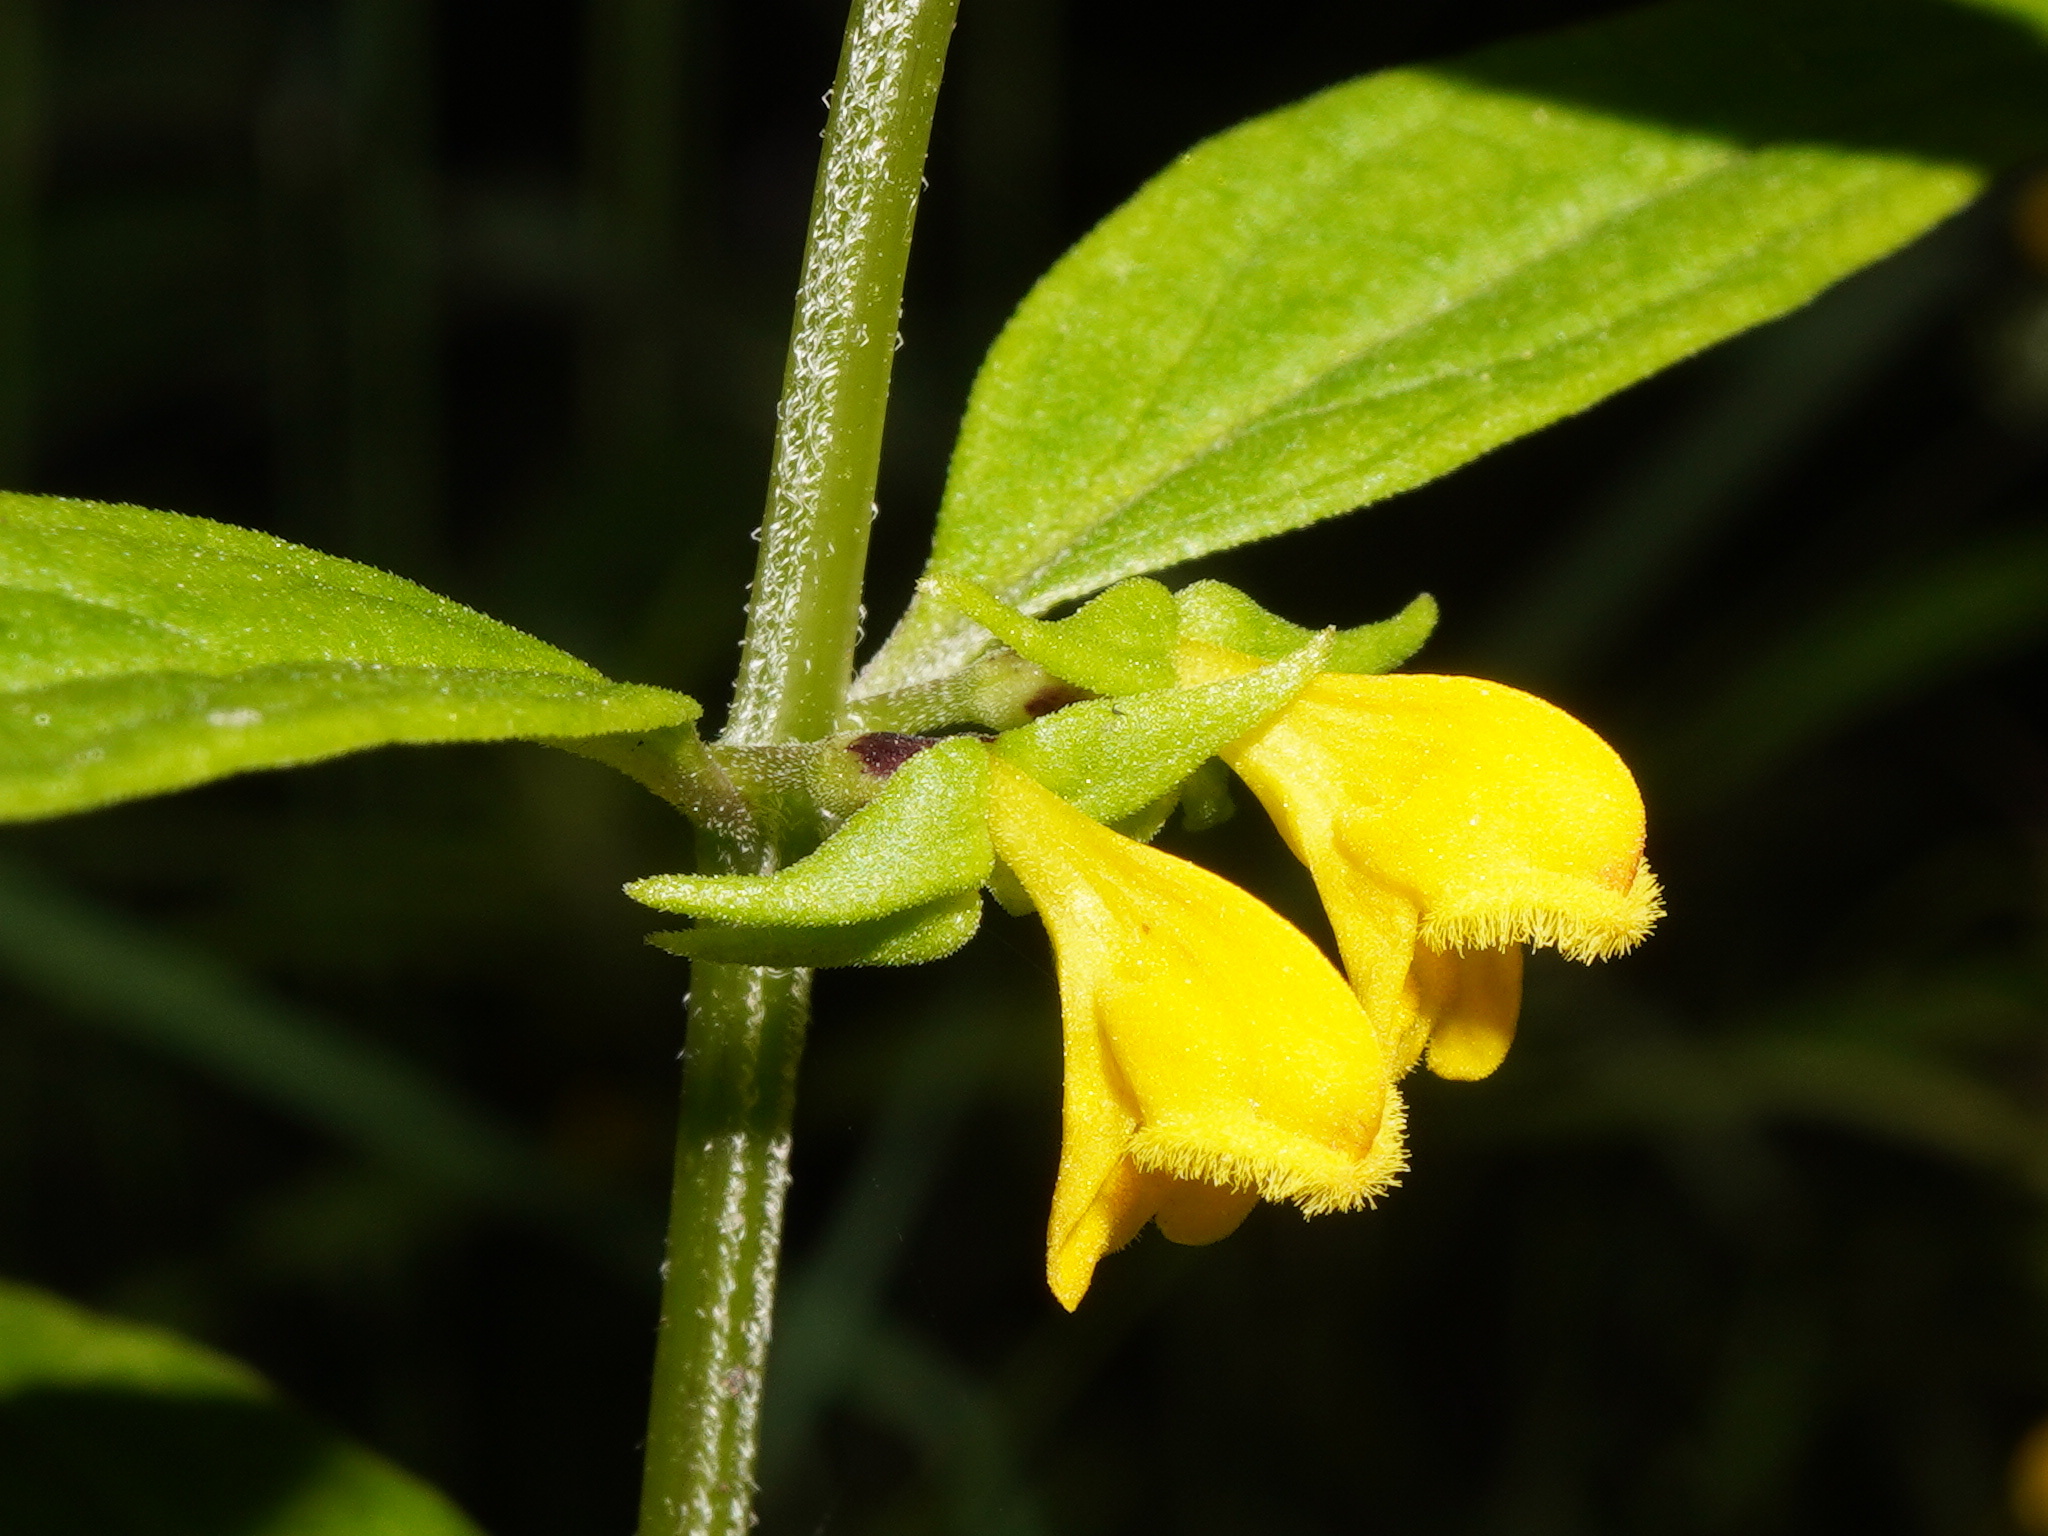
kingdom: Plantae
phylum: Tracheophyta
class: Magnoliopsida
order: Lamiales
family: Orobanchaceae
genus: Melampyrum
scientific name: Melampyrum sylvaticum
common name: Small cow-wheat
